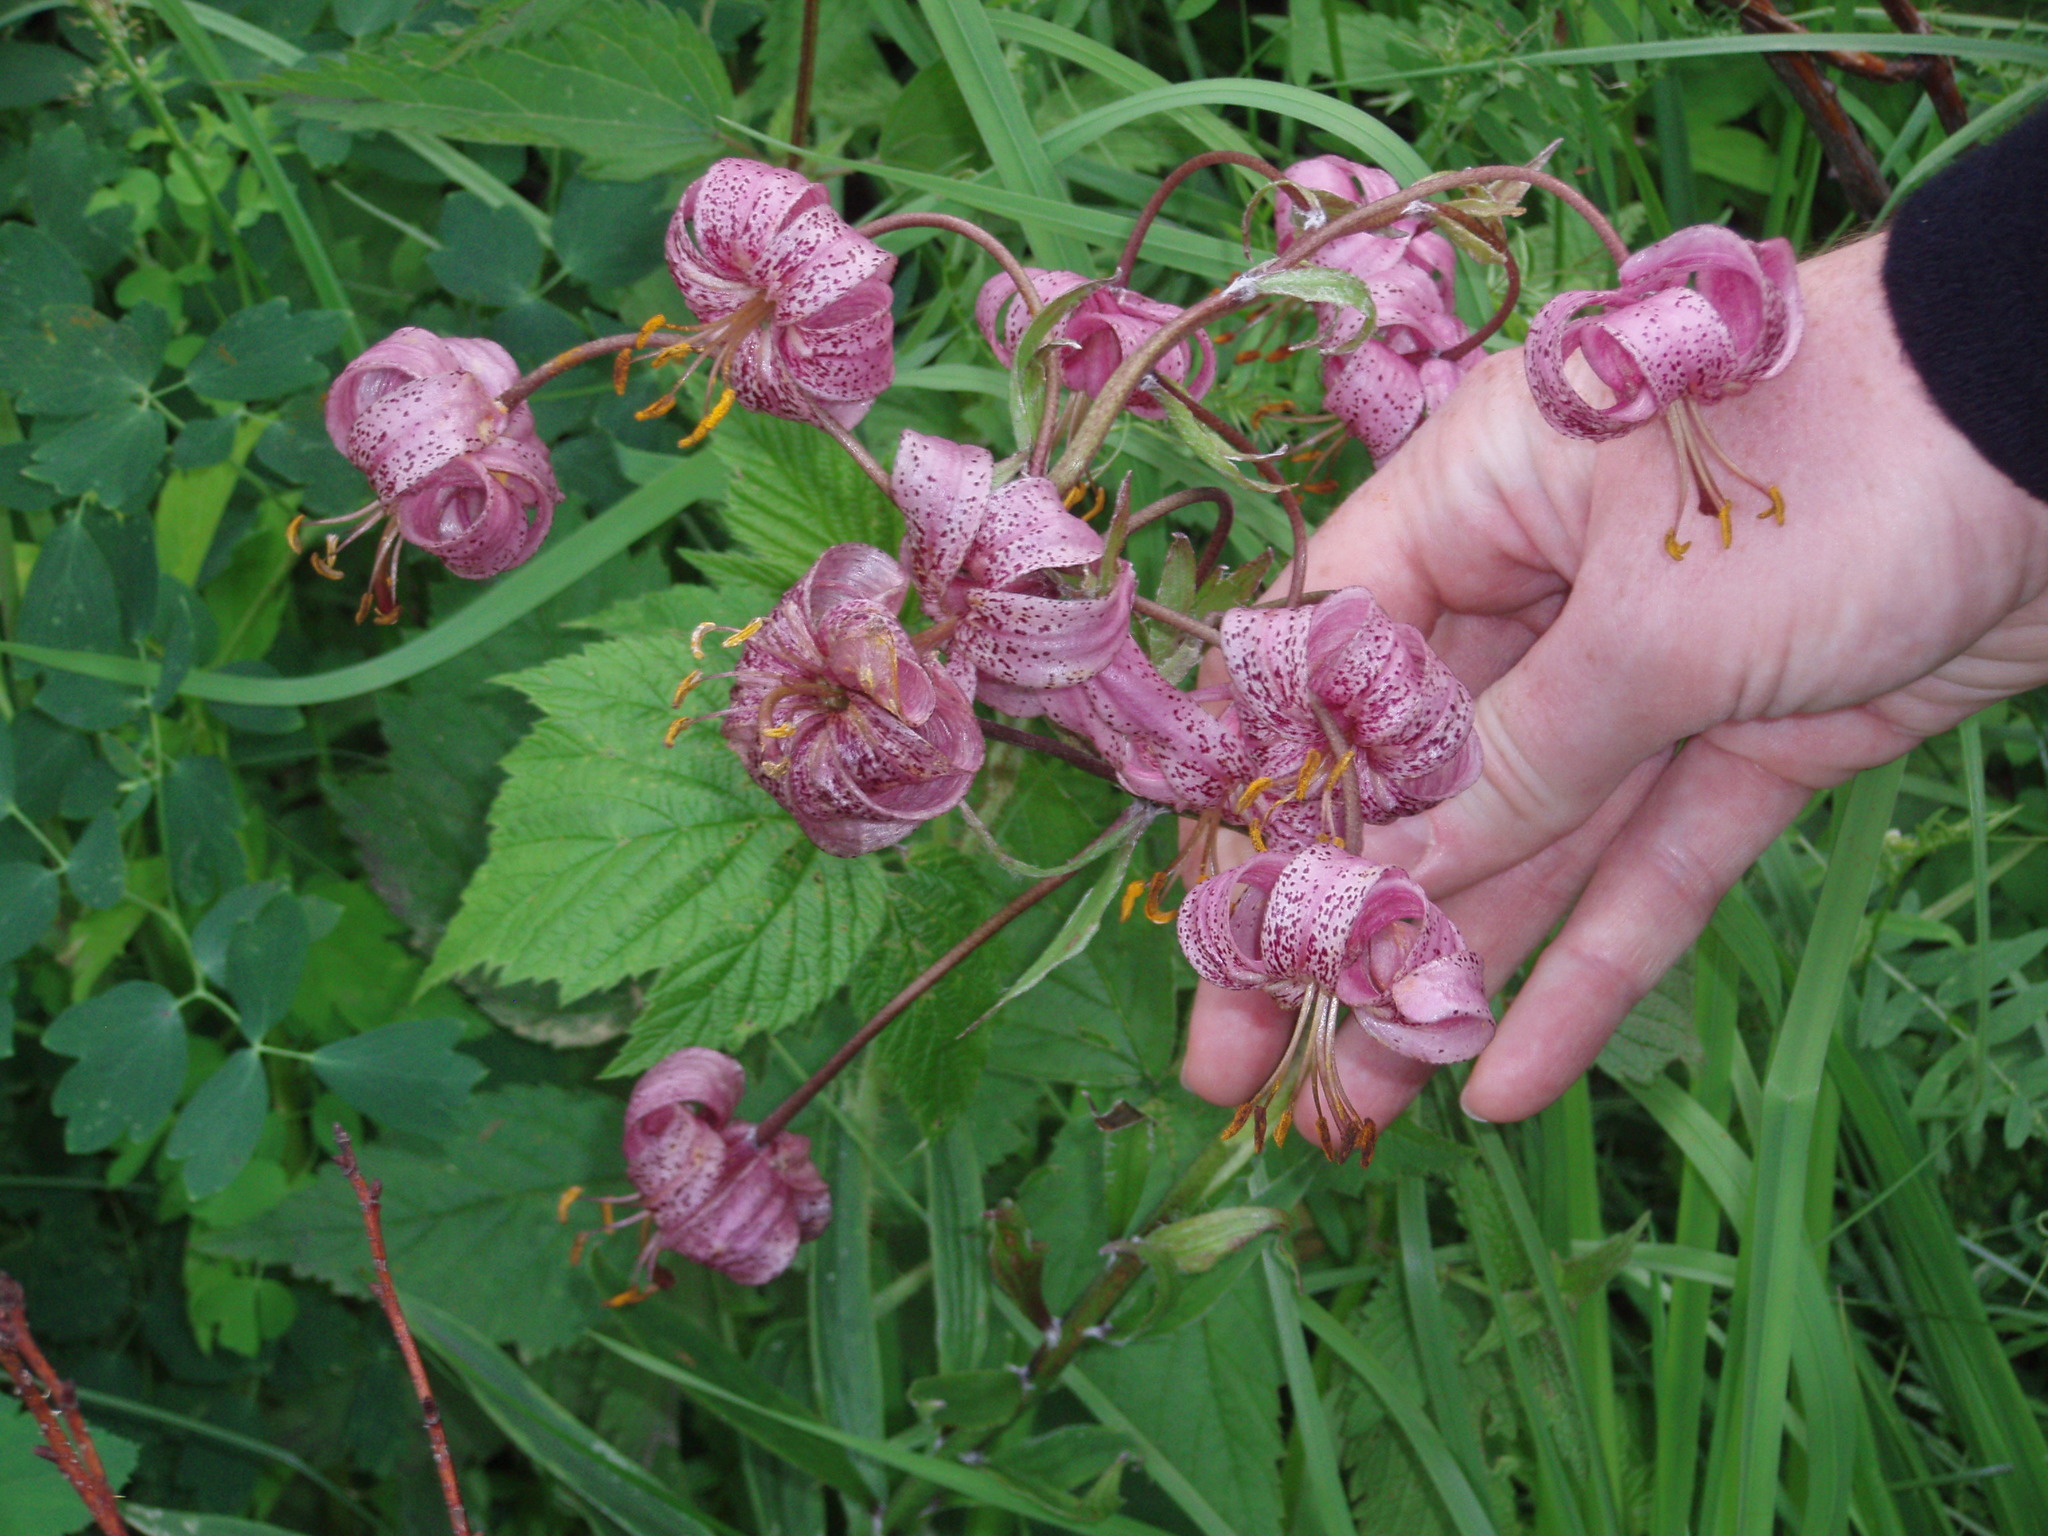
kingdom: Plantae
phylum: Tracheophyta
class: Liliopsida
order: Liliales
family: Liliaceae
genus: Lilium
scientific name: Lilium martagon
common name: Martagon lily
